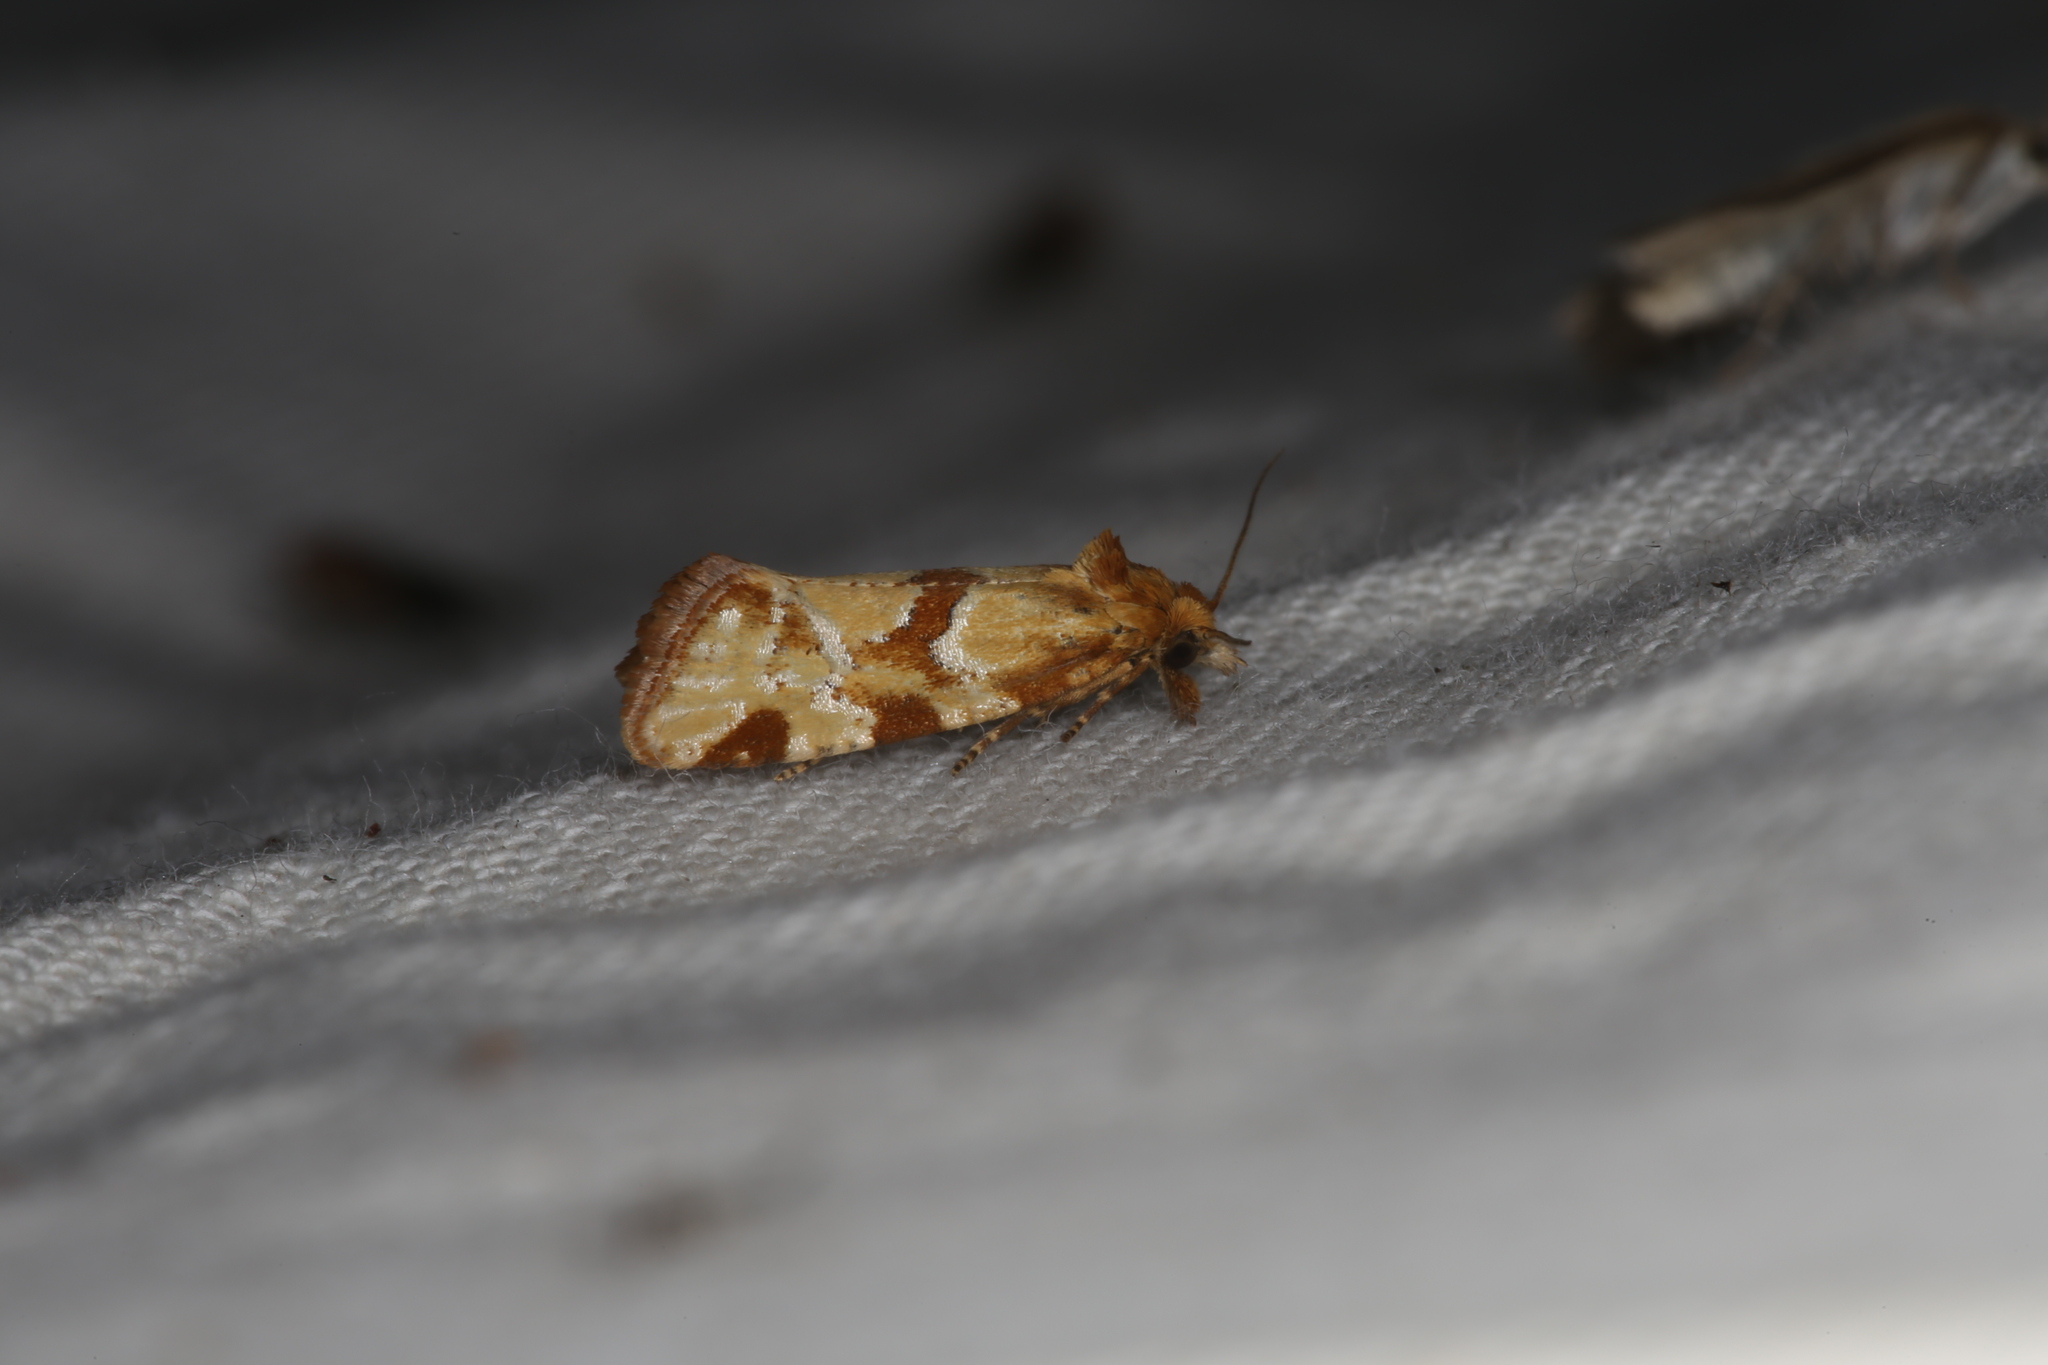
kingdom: Animalia
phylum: Arthropoda
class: Insecta
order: Lepidoptera
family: Tortricidae
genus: Aethes
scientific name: Aethes hartmanniana
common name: Scabious conch
